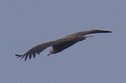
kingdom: Animalia
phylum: Chordata
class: Aves
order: Accipitriformes
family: Accipitridae
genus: Necrosyrtes
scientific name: Necrosyrtes monachus
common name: Hooded vulture
